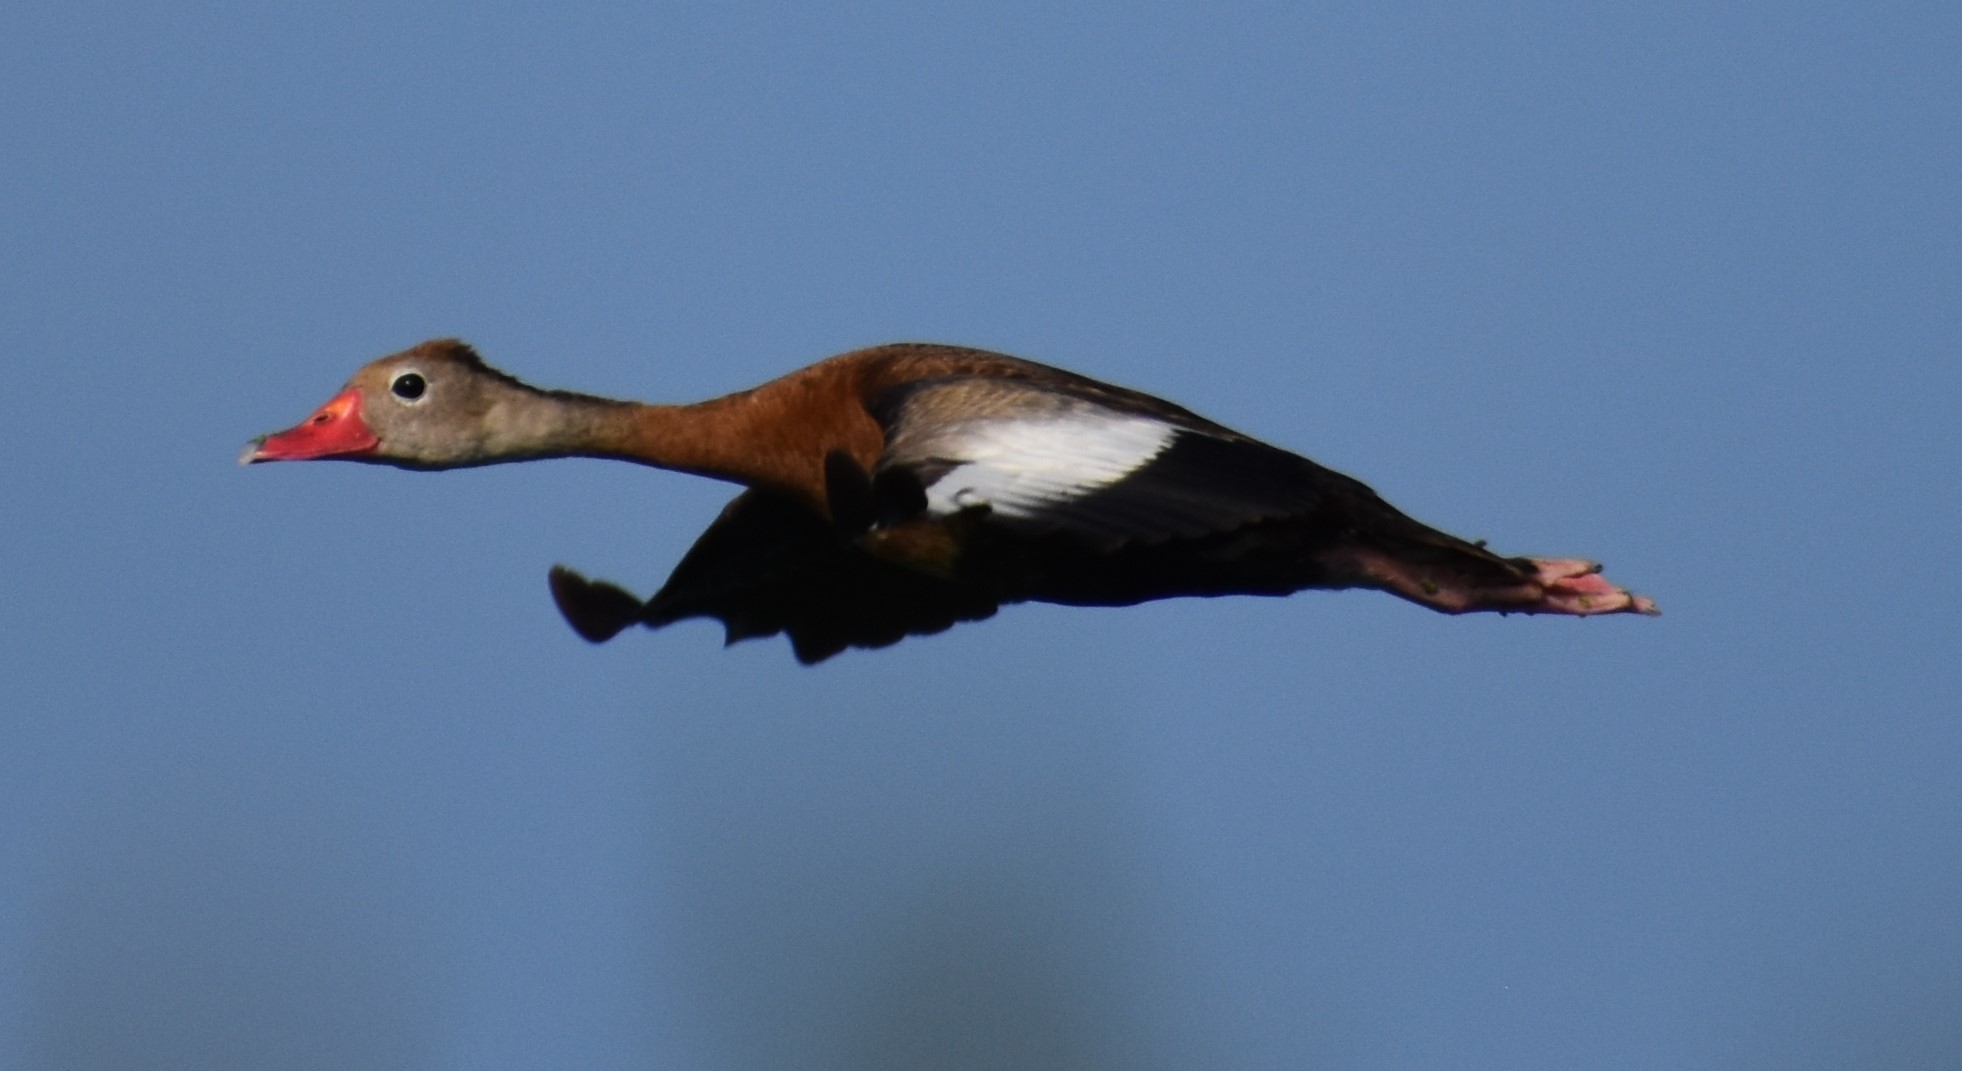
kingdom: Animalia
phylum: Chordata
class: Aves
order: Anseriformes
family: Anatidae
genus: Dendrocygna
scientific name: Dendrocygna autumnalis
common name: Black-bellied whistling duck
